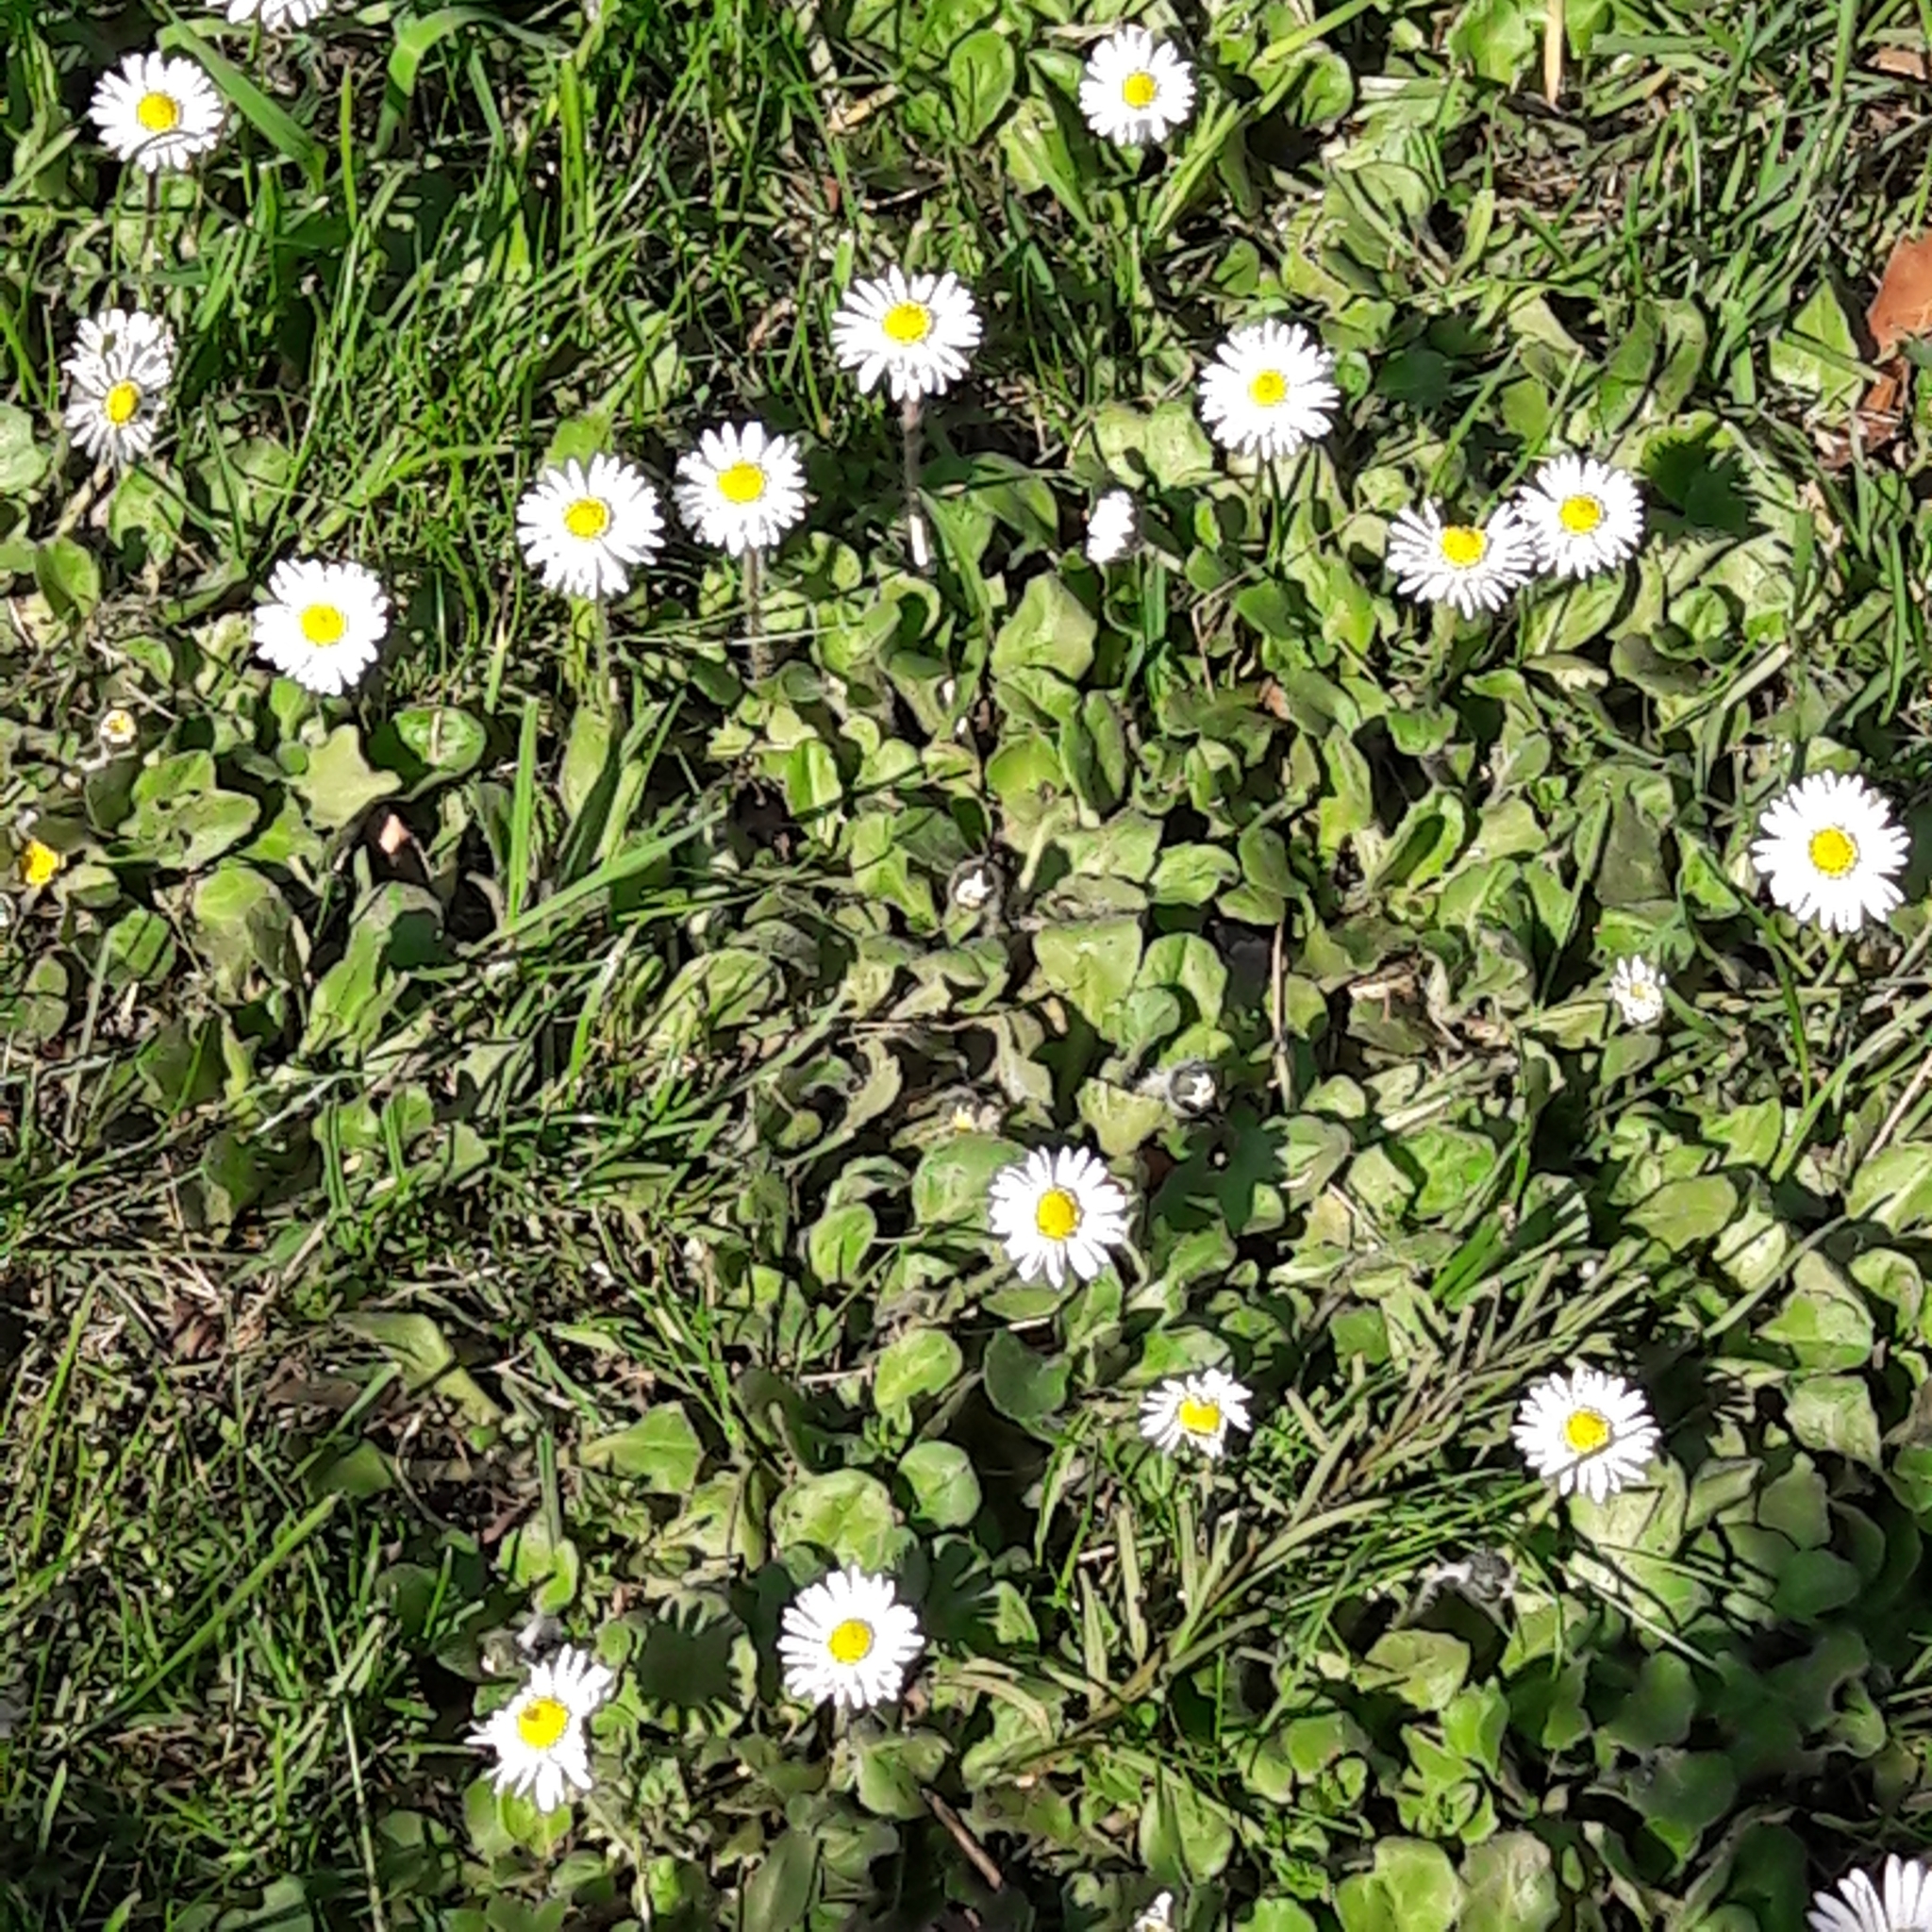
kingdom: Plantae
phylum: Tracheophyta
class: Magnoliopsida
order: Asterales
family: Asteraceae
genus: Bellis
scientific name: Bellis perennis
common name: Lawndaisy
